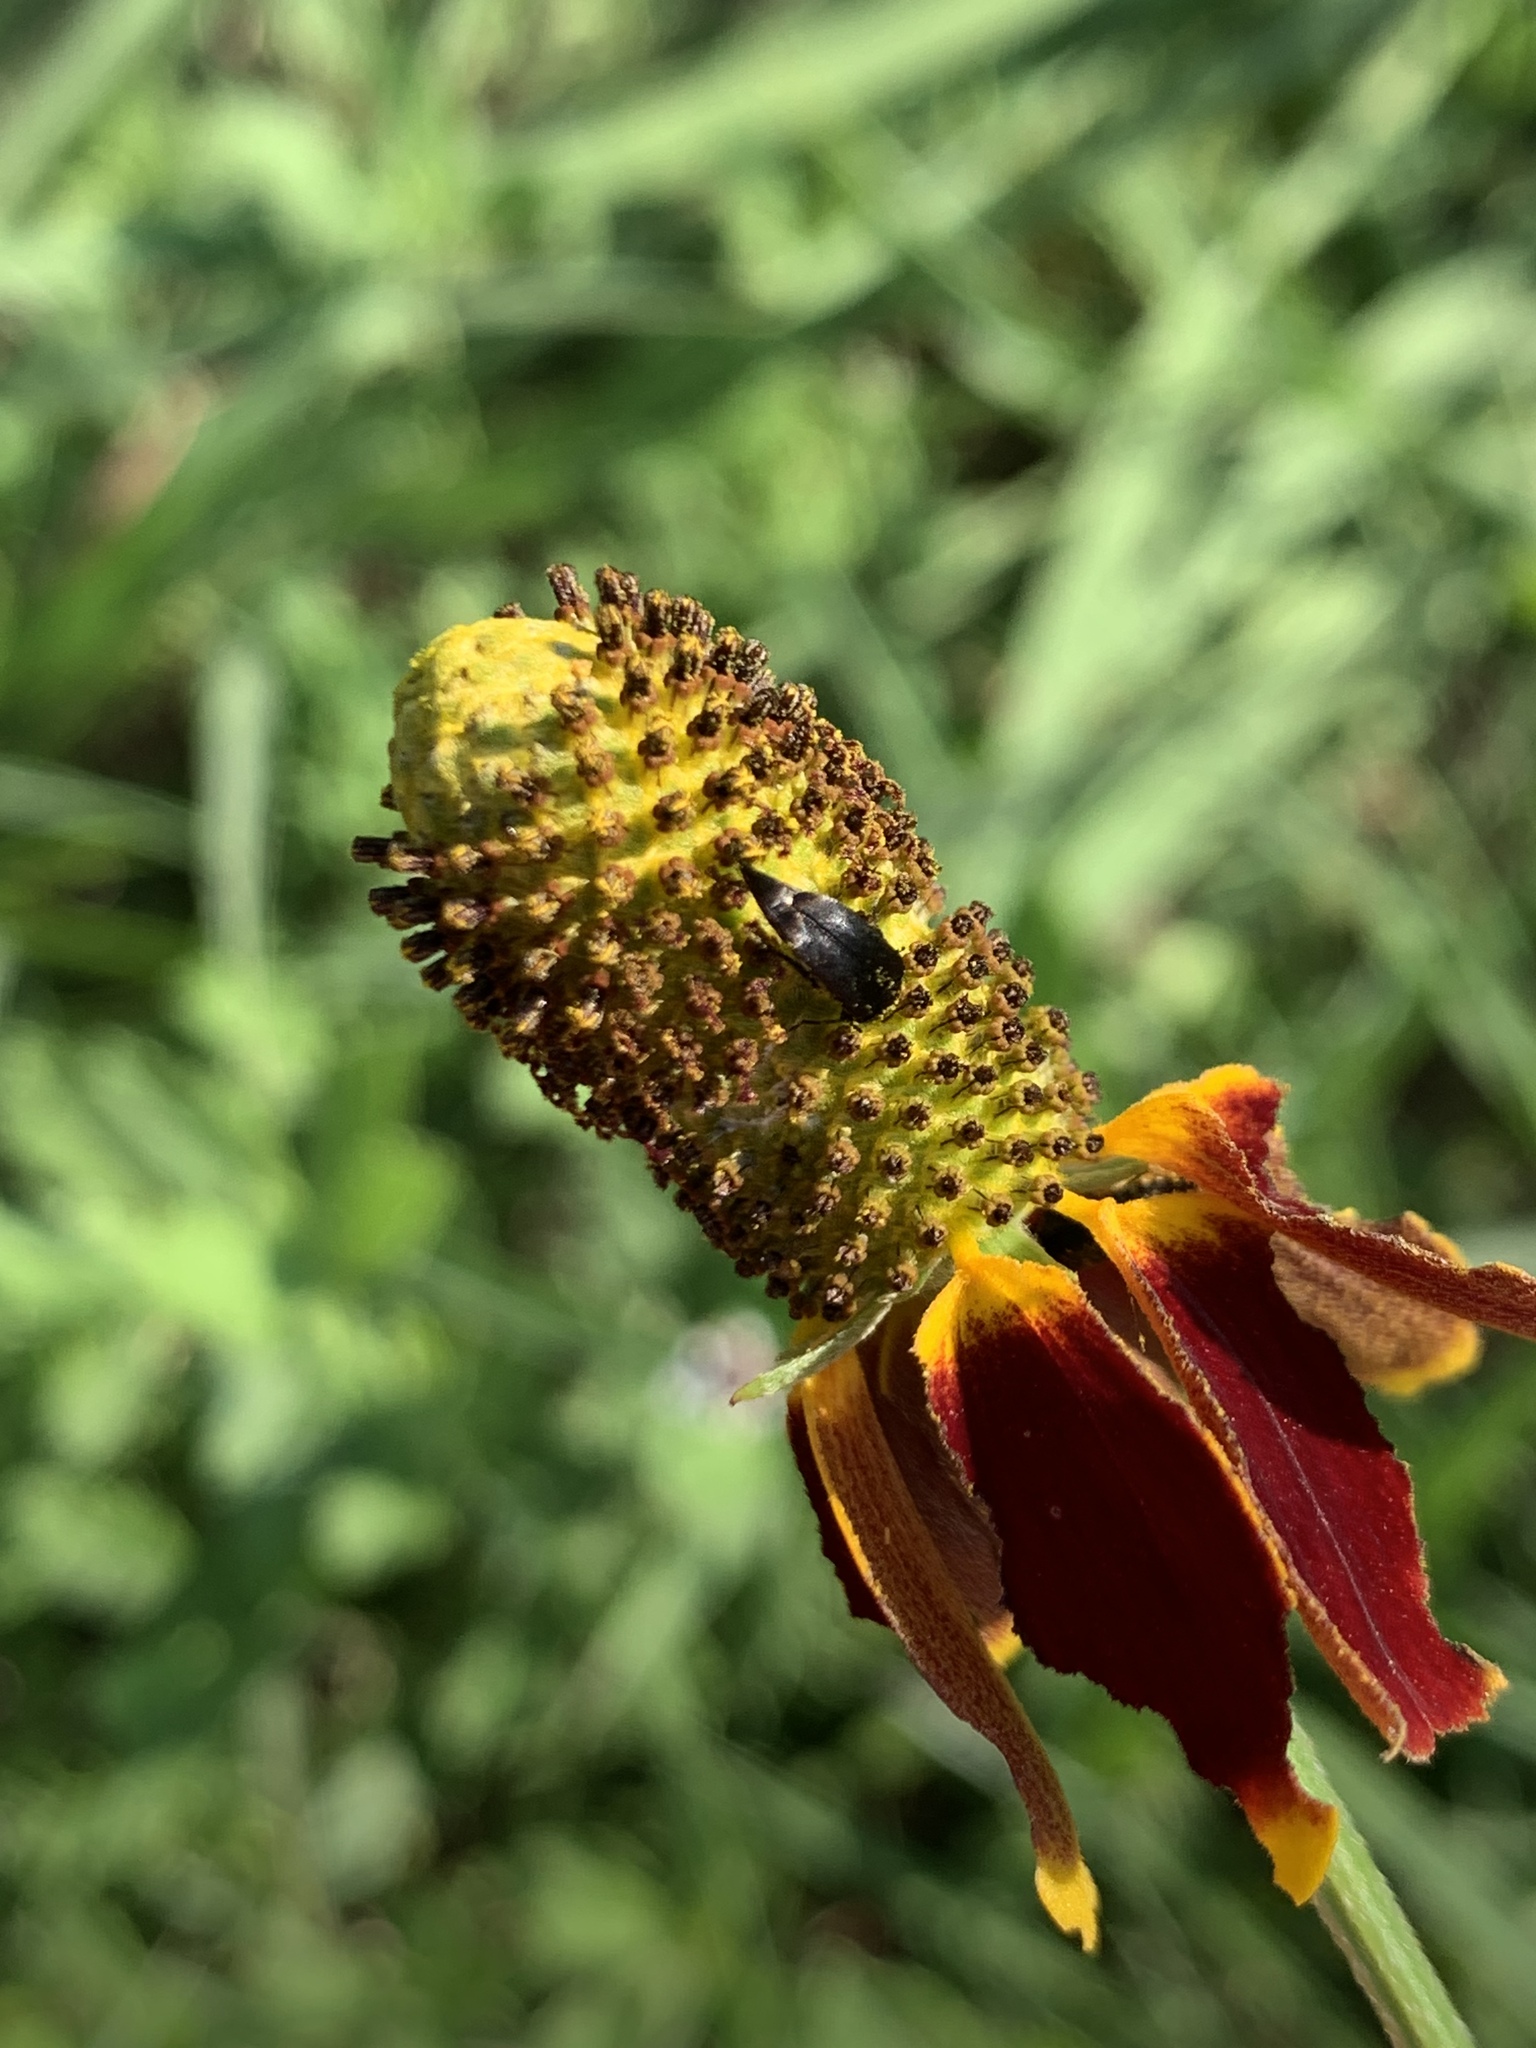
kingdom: Plantae
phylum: Tracheophyta
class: Magnoliopsida
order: Asterales
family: Asteraceae
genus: Ratibida
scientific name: Ratibida columnifera
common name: Prairie coneflower
